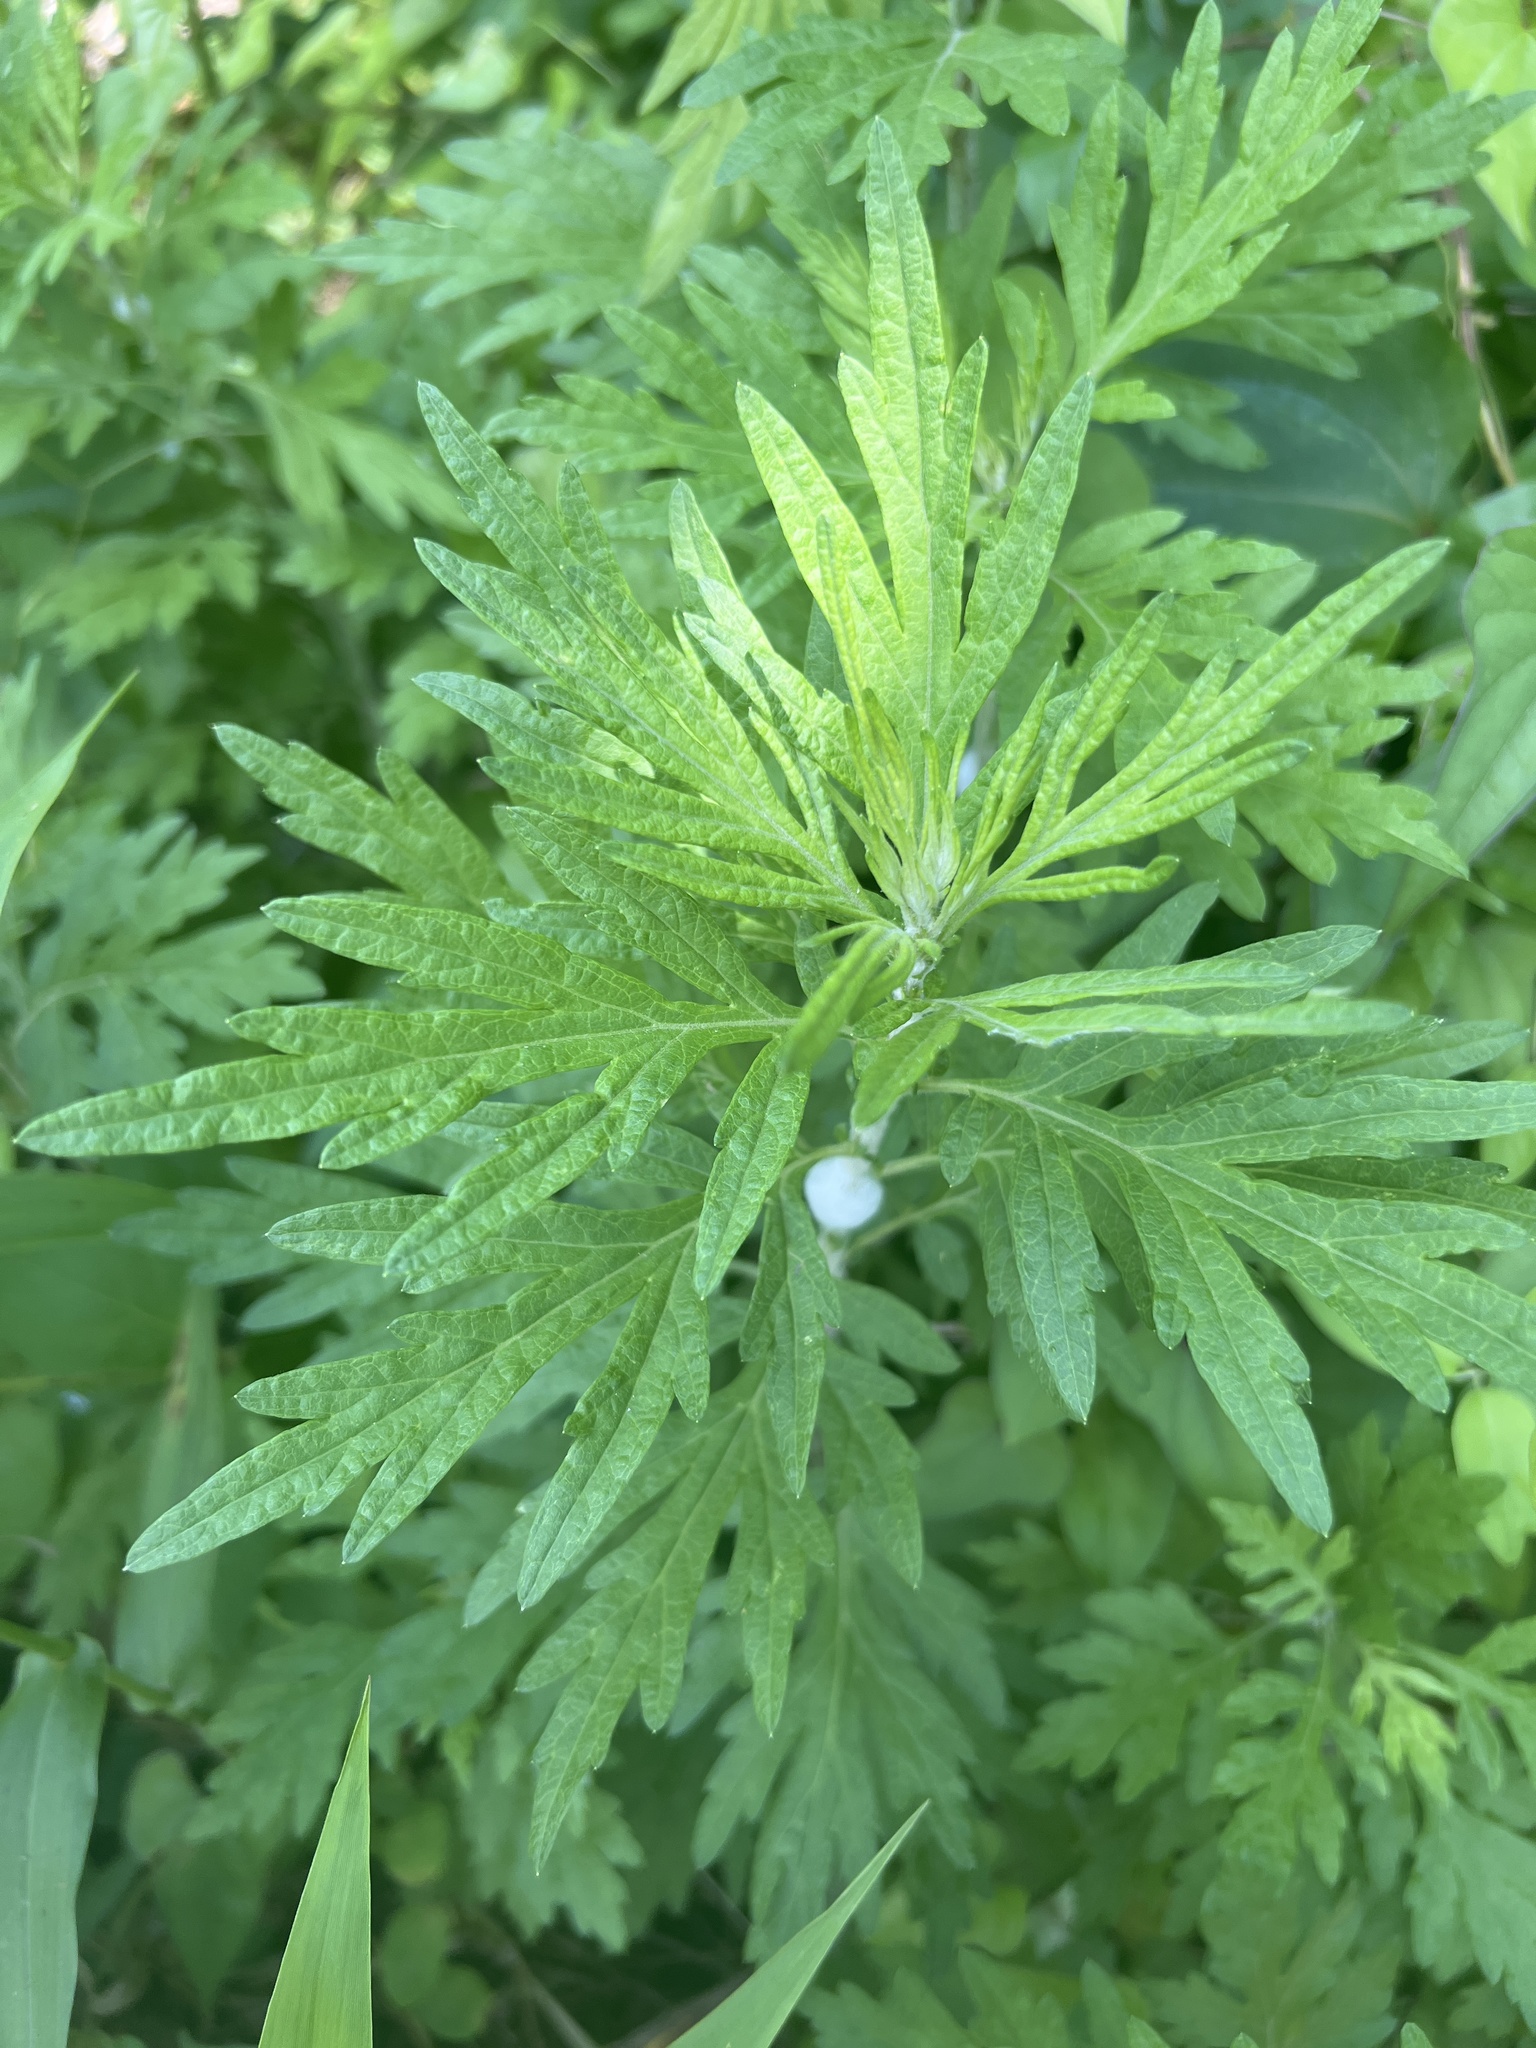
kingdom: Plantae
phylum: Tracheophyta
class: Magnoliopsida
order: Asterales
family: Asteraceae
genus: Artemisia
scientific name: Artemisia vulgaris
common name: Mugwort
